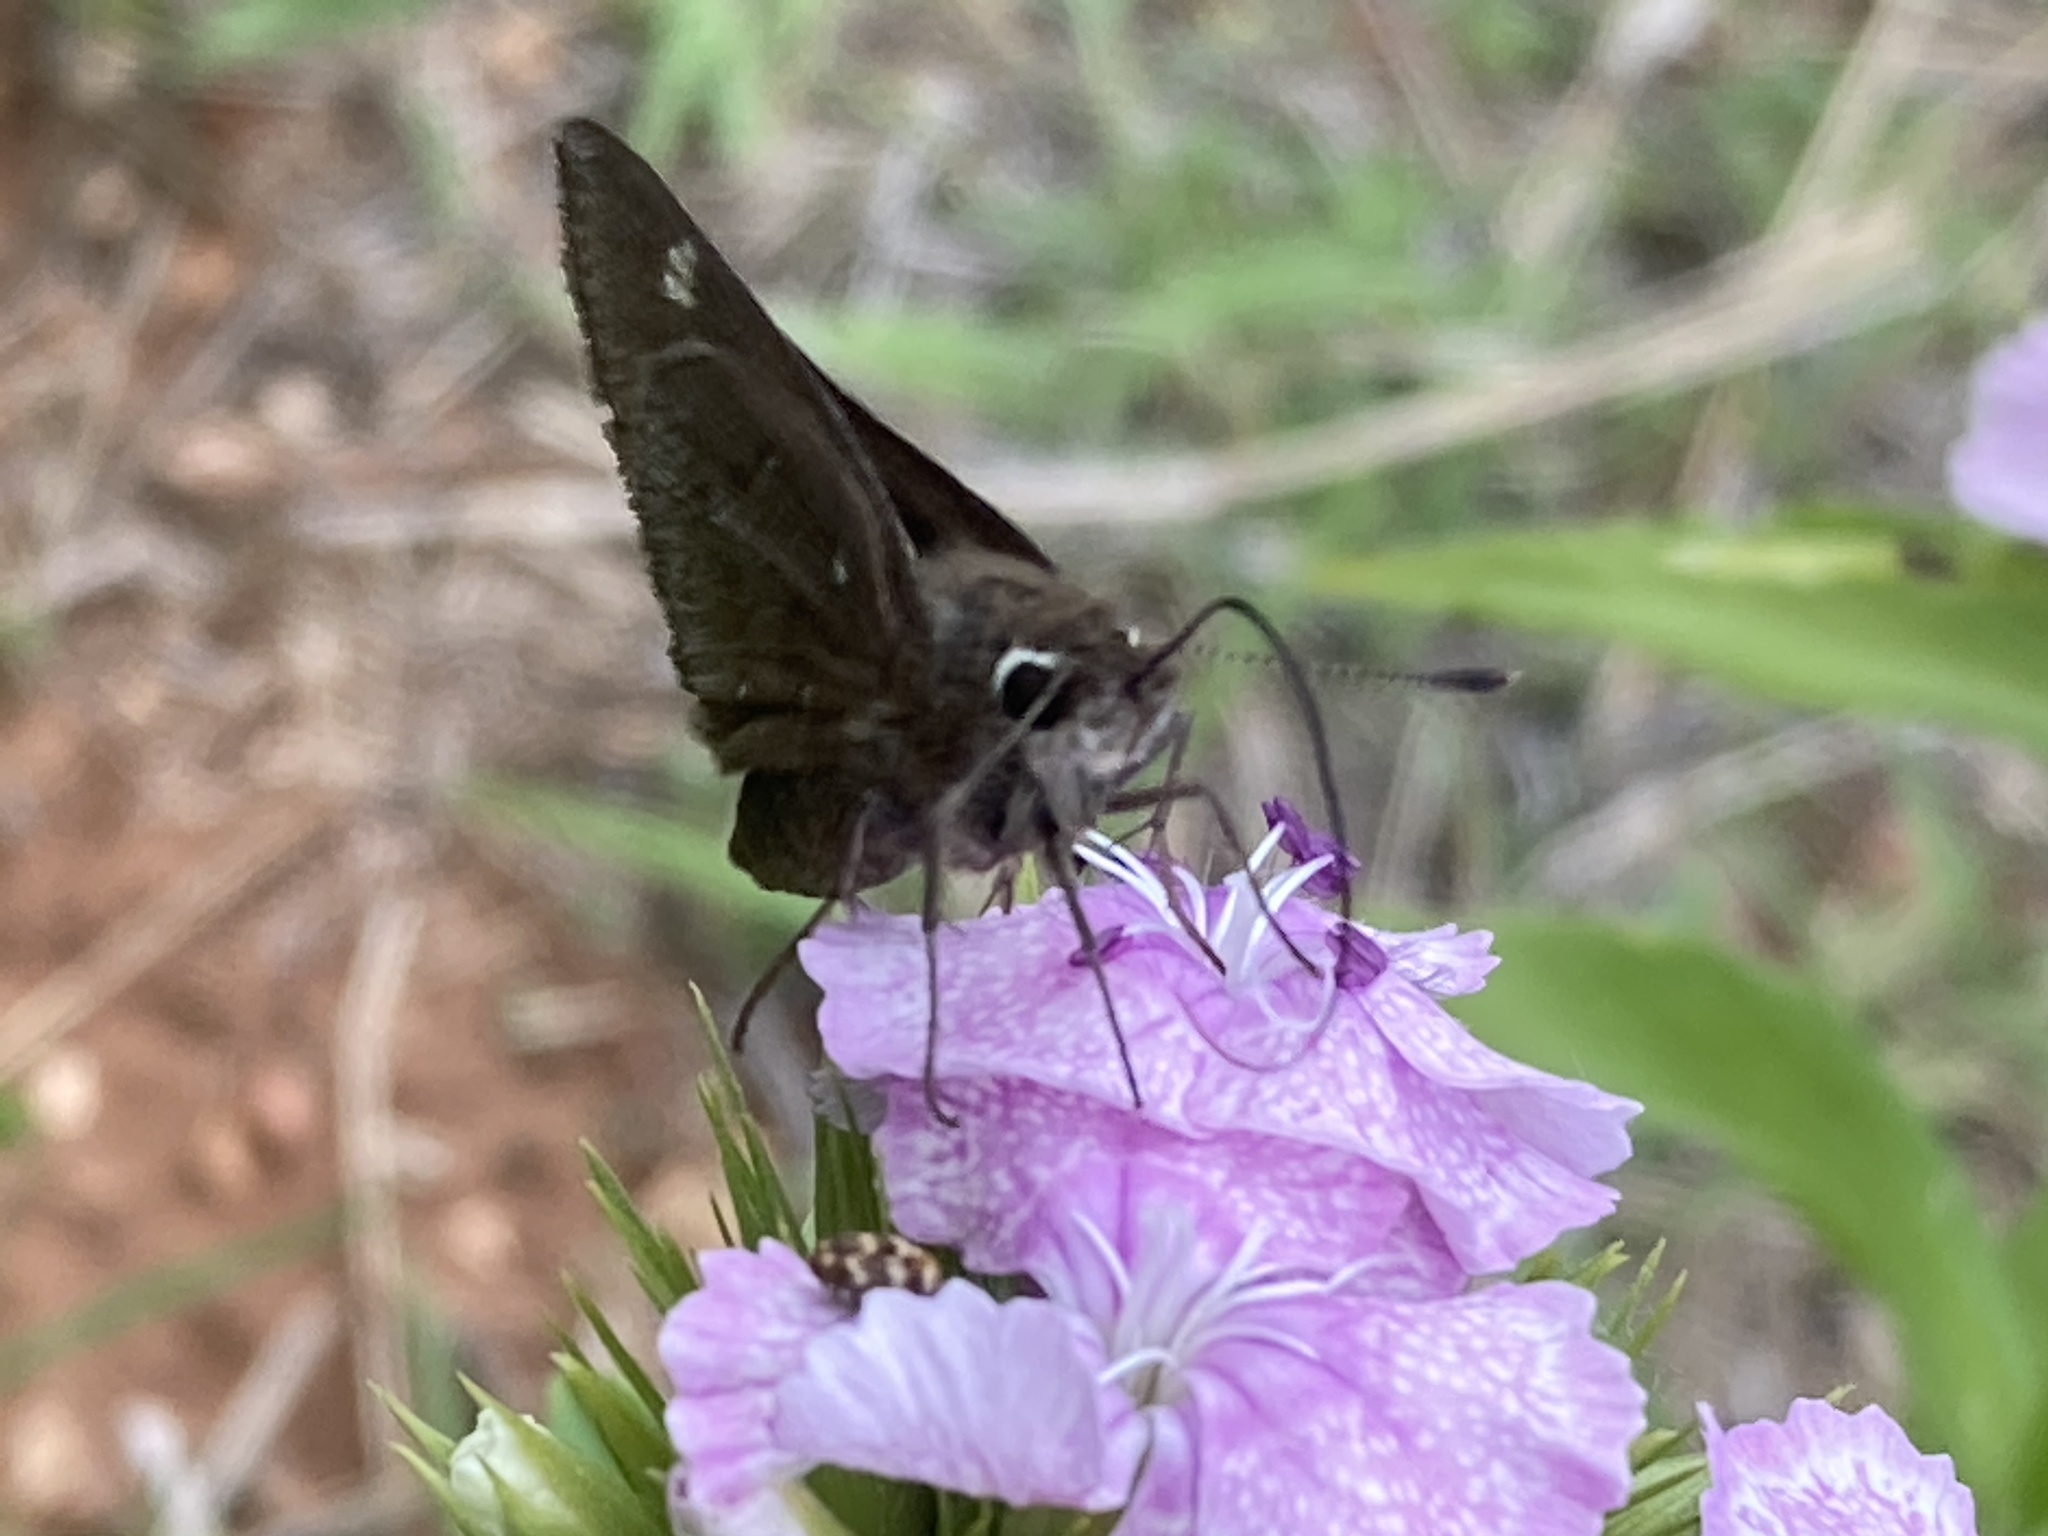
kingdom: Animalia
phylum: Arthropoda
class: Insecta
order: Lepidoptera
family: Hesperiidae
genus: Atrytonopsis
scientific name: Atrytonopsis hianna
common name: Dusted skipper
